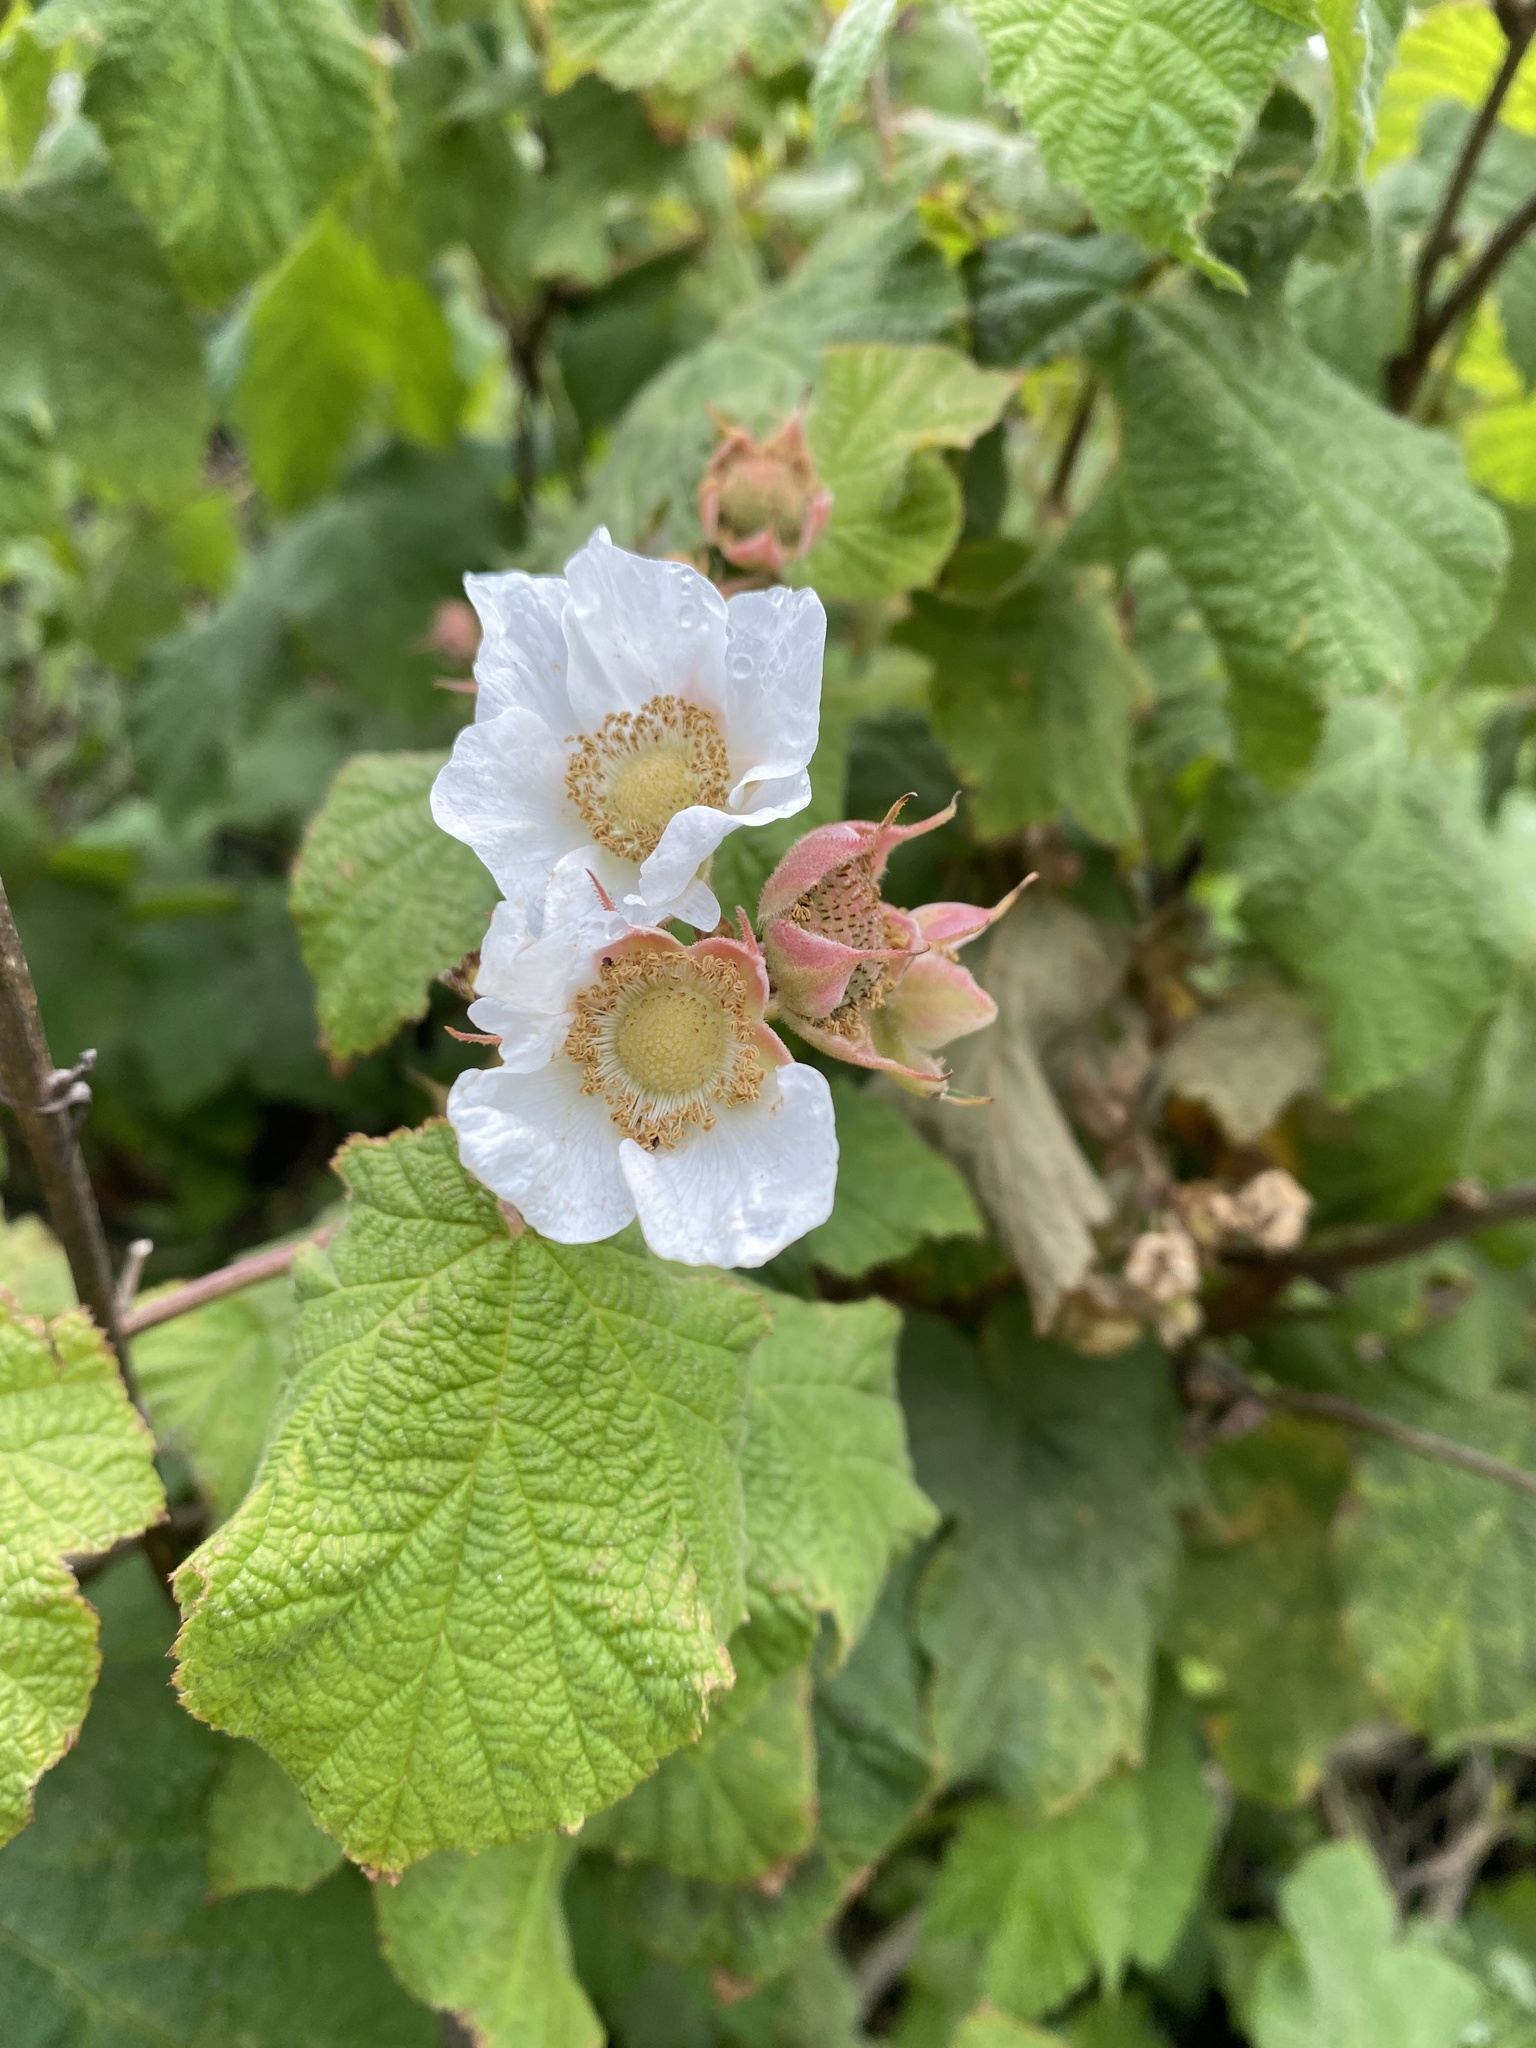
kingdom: Plantae
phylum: Tracheophyta
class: Magnoliopsida
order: Rosales
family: Rosaceae
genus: Rubus
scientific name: Rubus parviflorus
